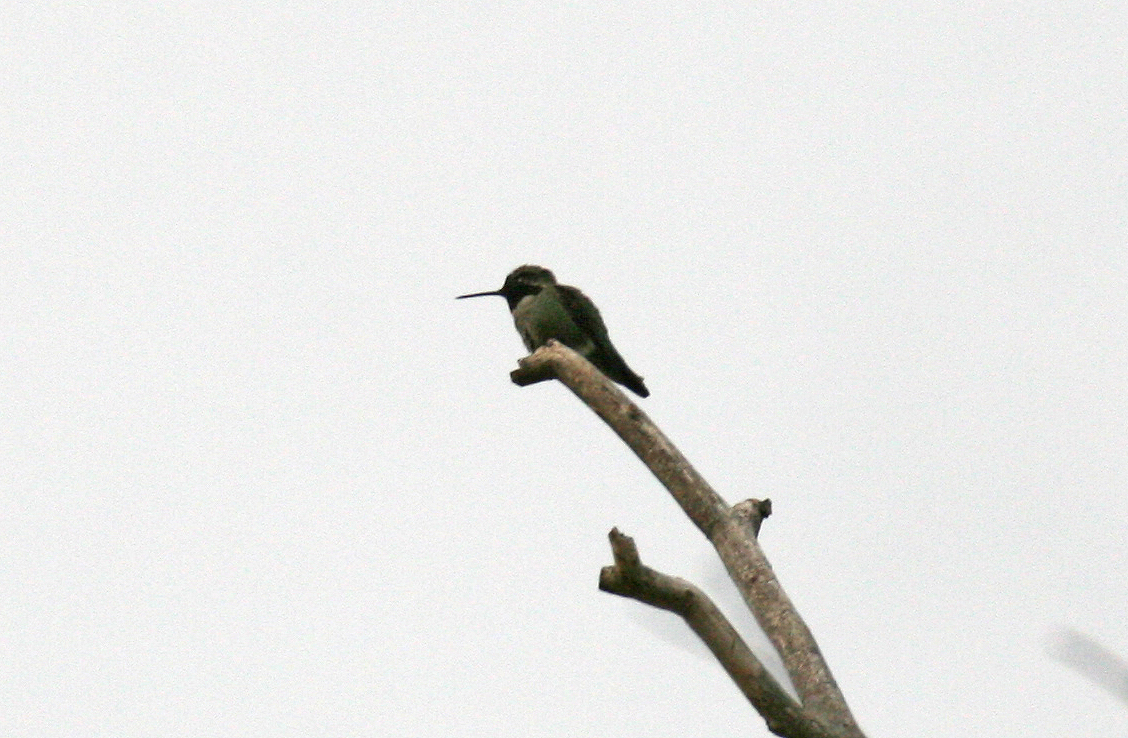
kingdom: Animalia
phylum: Chordata
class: Aves
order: Apodiformes
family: Trochilidae
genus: Calypte
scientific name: Calypte anna
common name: Anna's hummingbird
